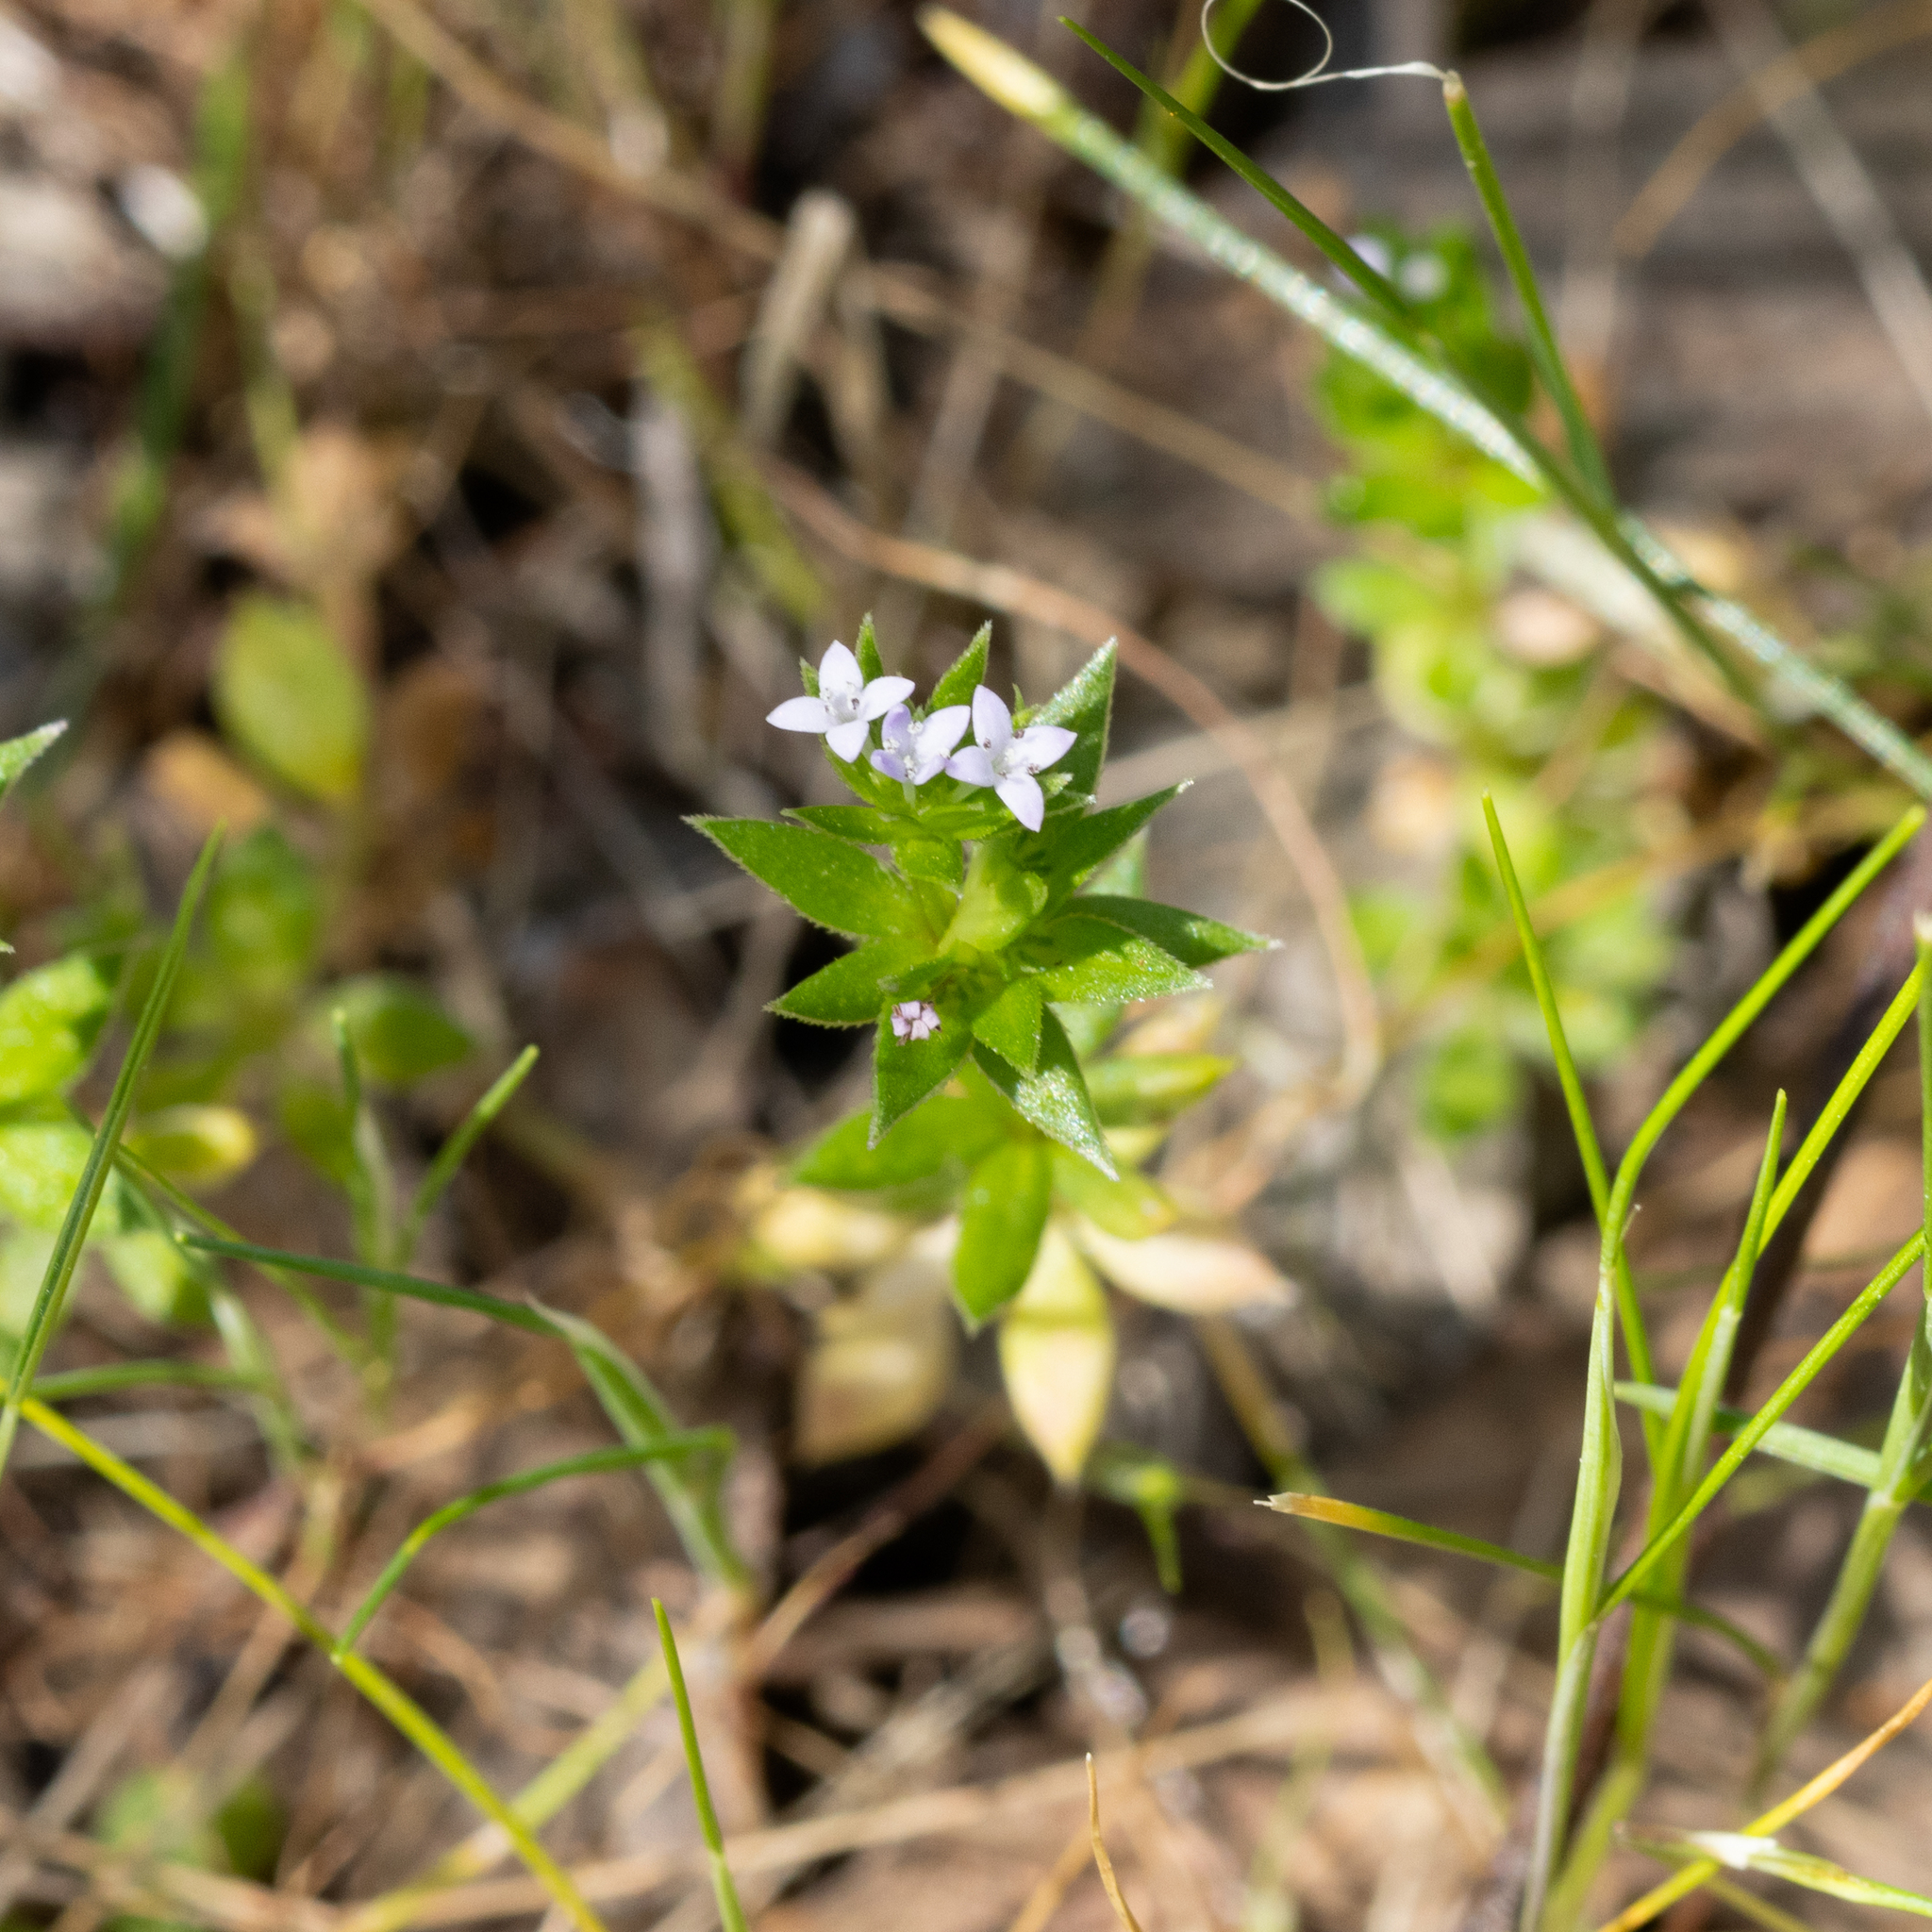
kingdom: Plantae
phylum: Tracheophyta
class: Magnoliopsida
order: Gentianales
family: Rubiaceae
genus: Sherardia
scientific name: Sherardia arvensis
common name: Field madder
